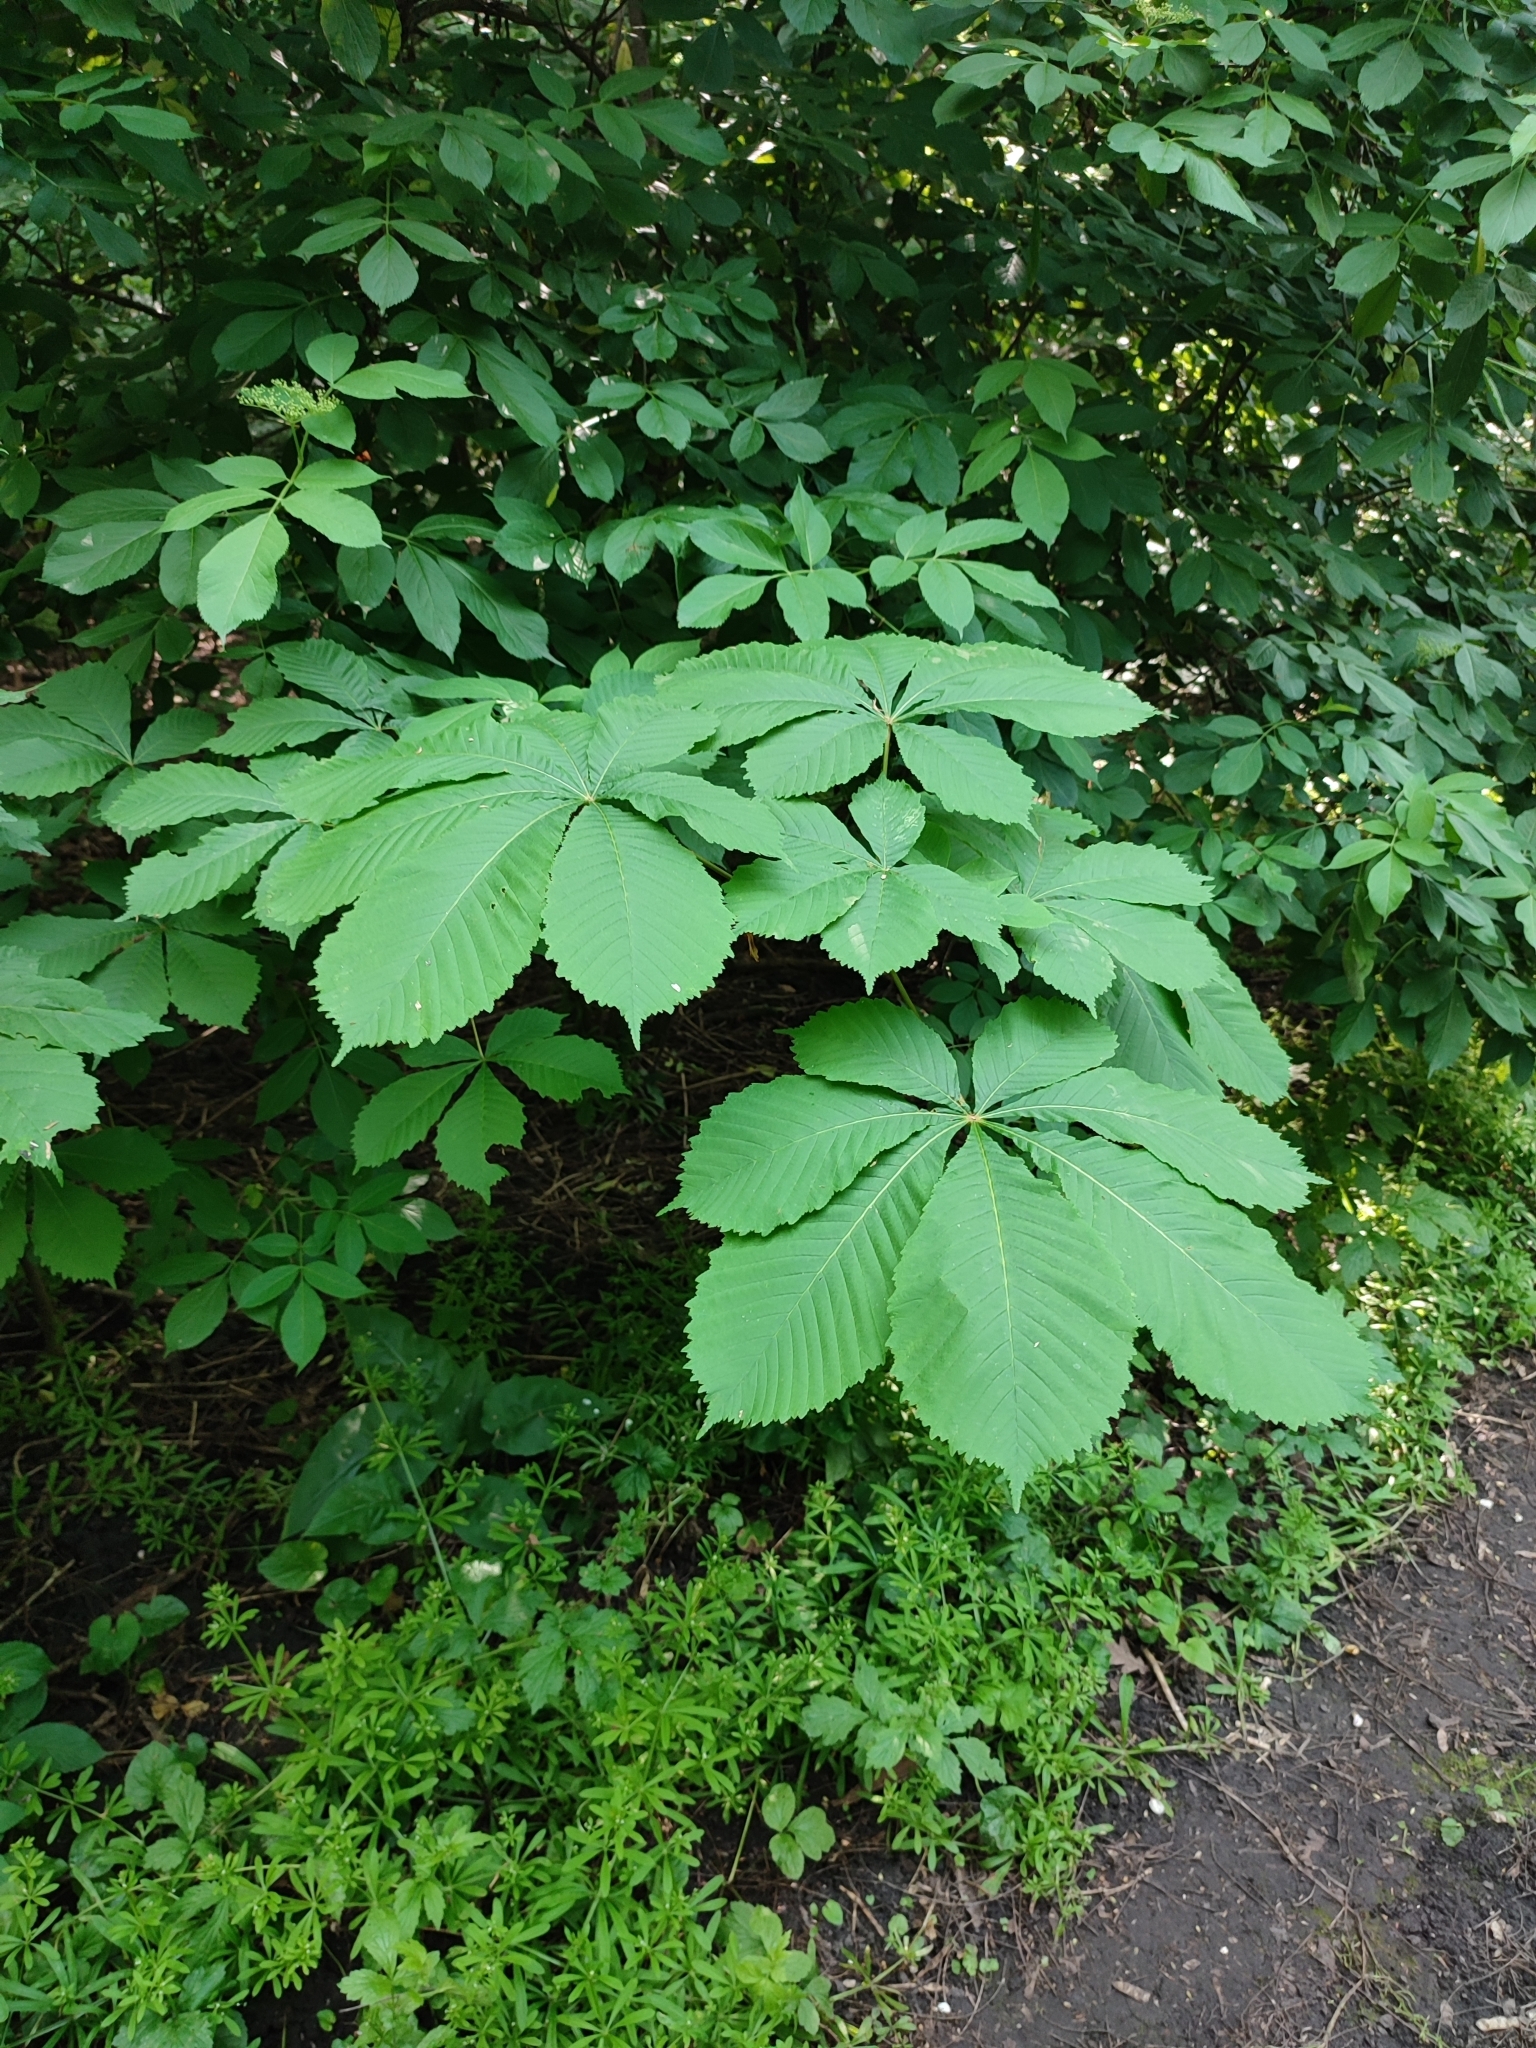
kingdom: Plantae
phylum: Tracheophyta
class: Magnoliopsida
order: Sapindales
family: Sapindaceae
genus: Aesculus
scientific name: Aesculus hippocastanum
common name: Horse-chestnut
